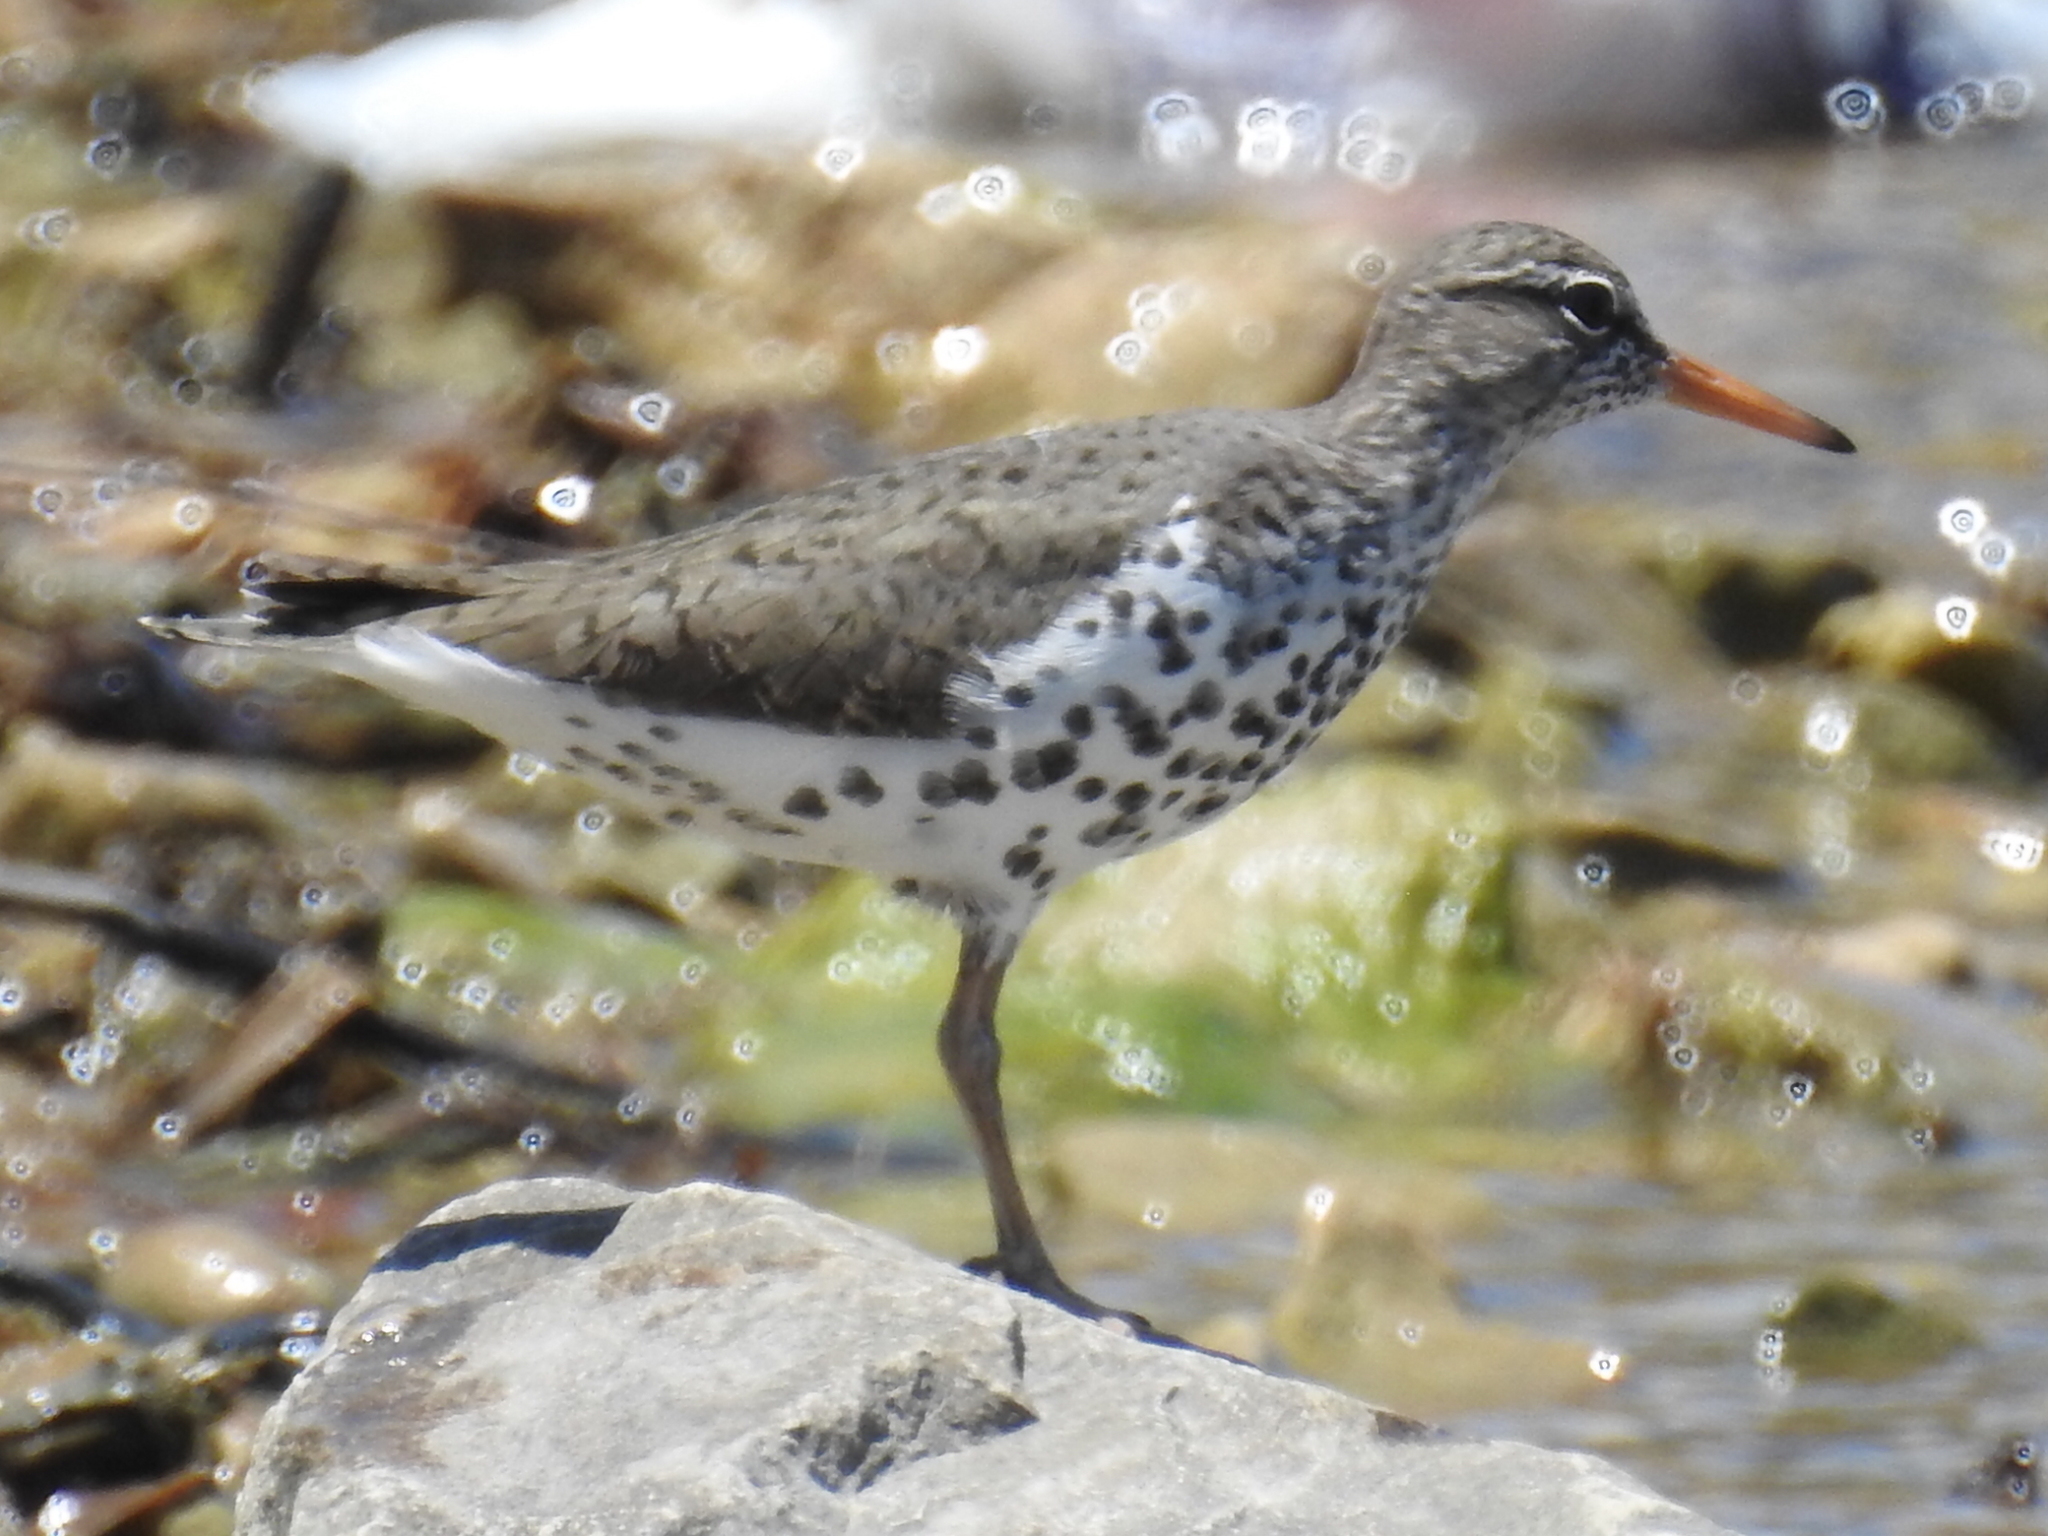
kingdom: Animalia
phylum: Chordata
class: Aves
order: Charadriiformes
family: Scolopacidae
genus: Actitis
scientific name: Actitis macularius
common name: Spotted sandpiper
